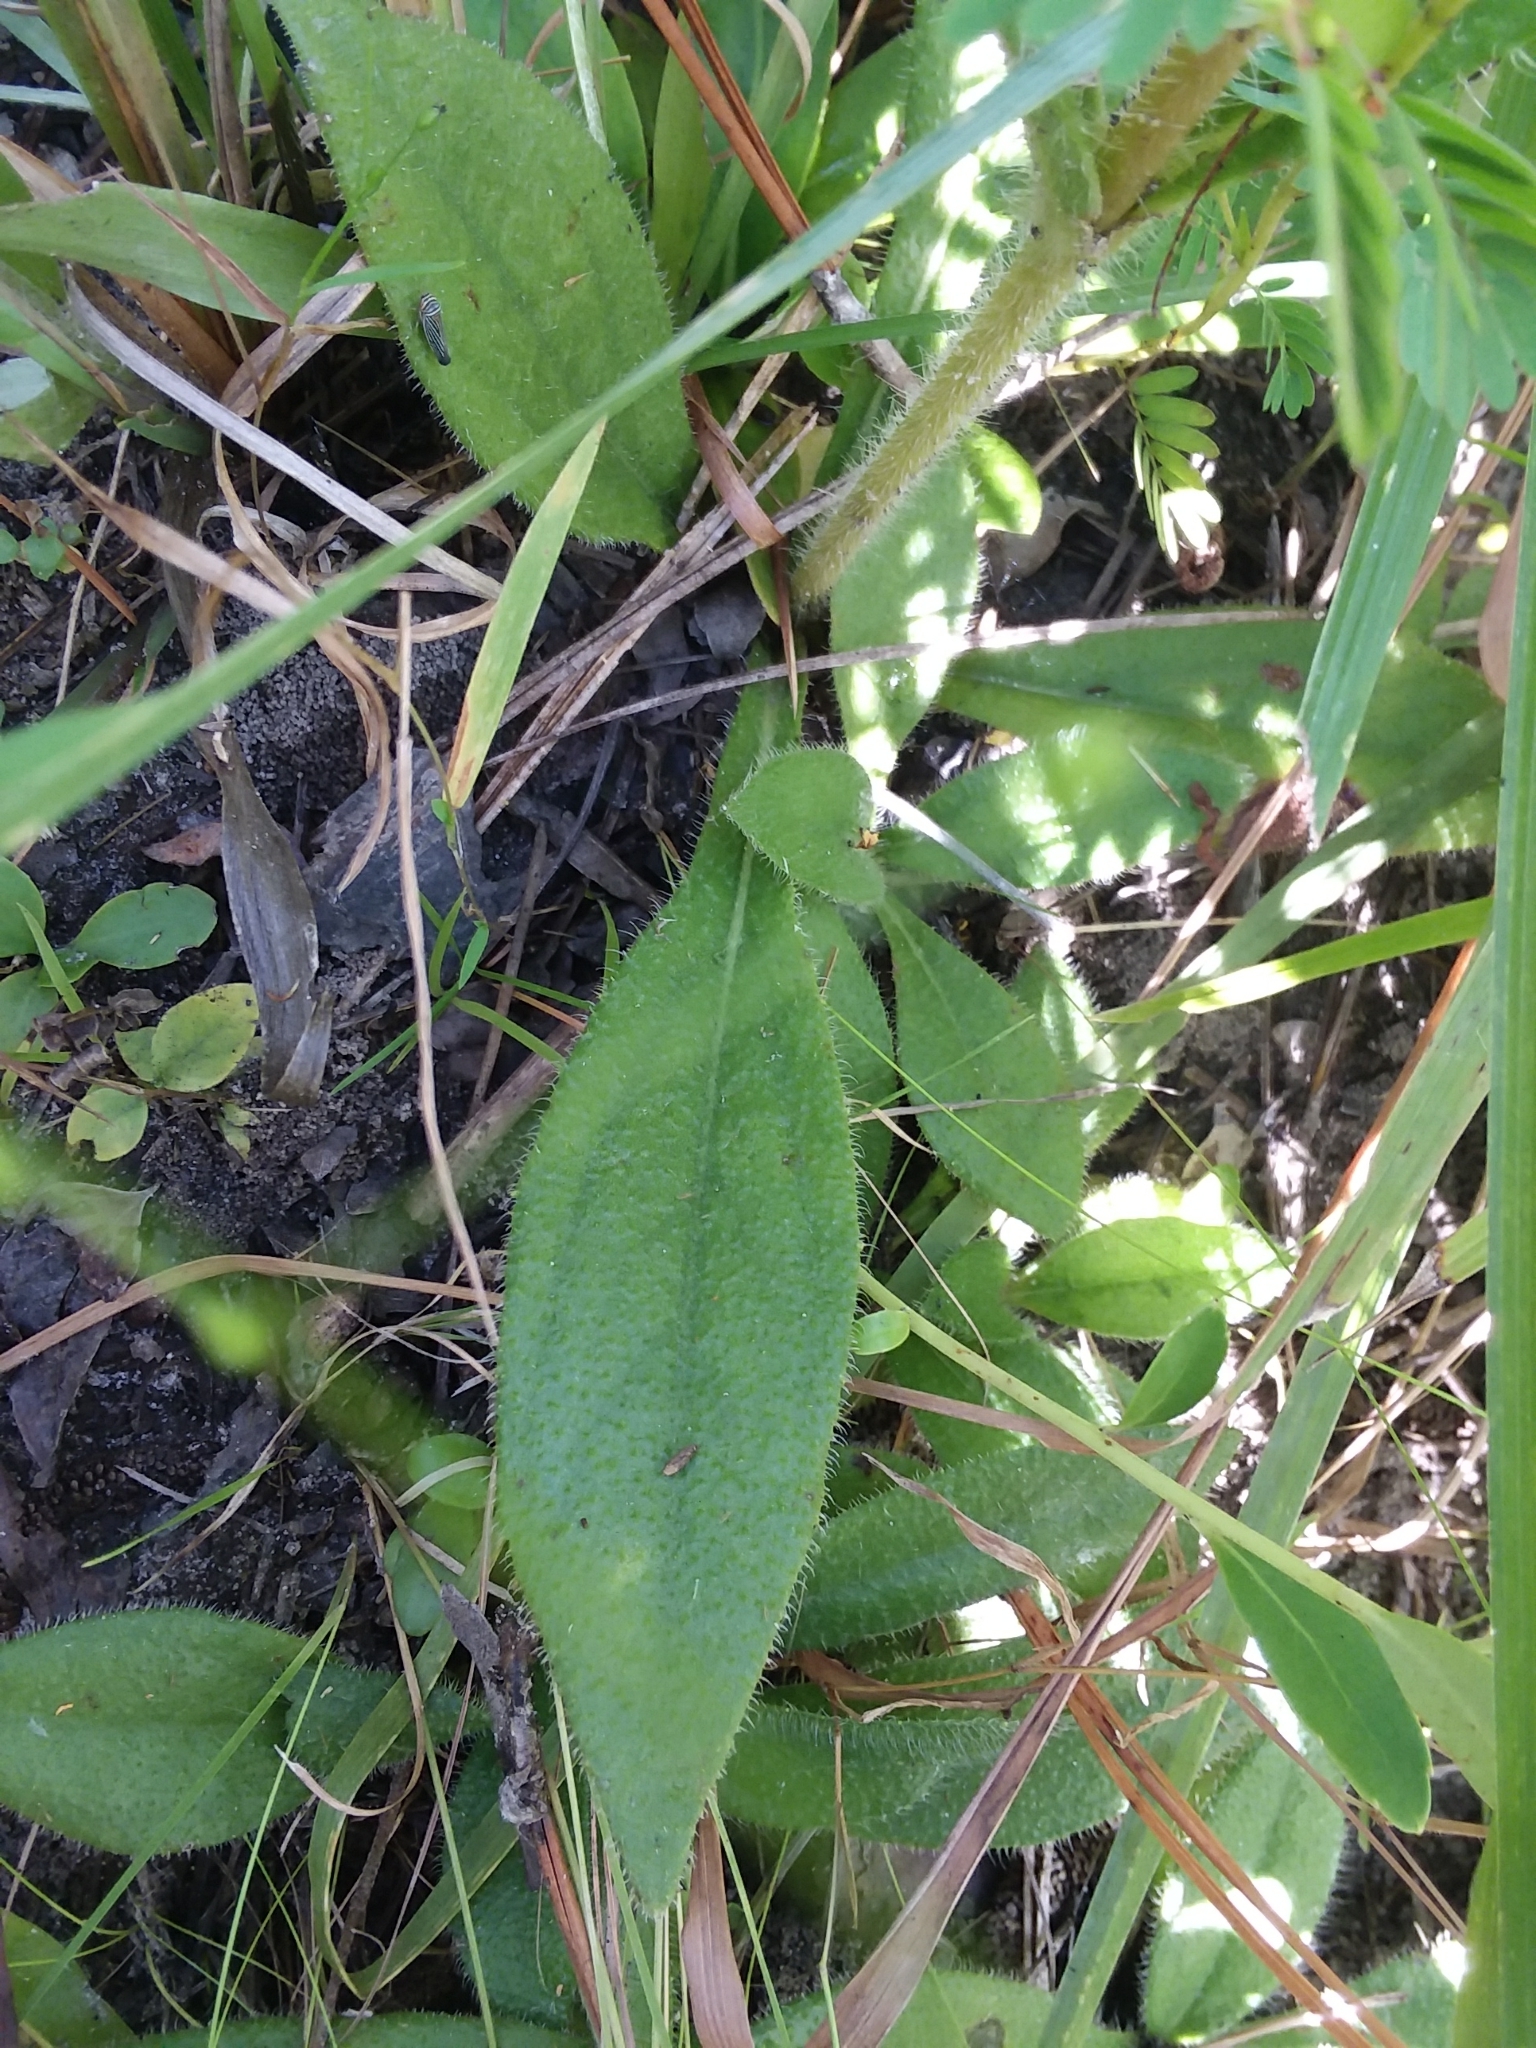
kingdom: Plantae
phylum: Tracheophyta
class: Magnoliopsida
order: Asterales
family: Asteraceae
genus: Helianthus
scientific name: Helianthus heterophyllus
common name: Wetland sunflower
